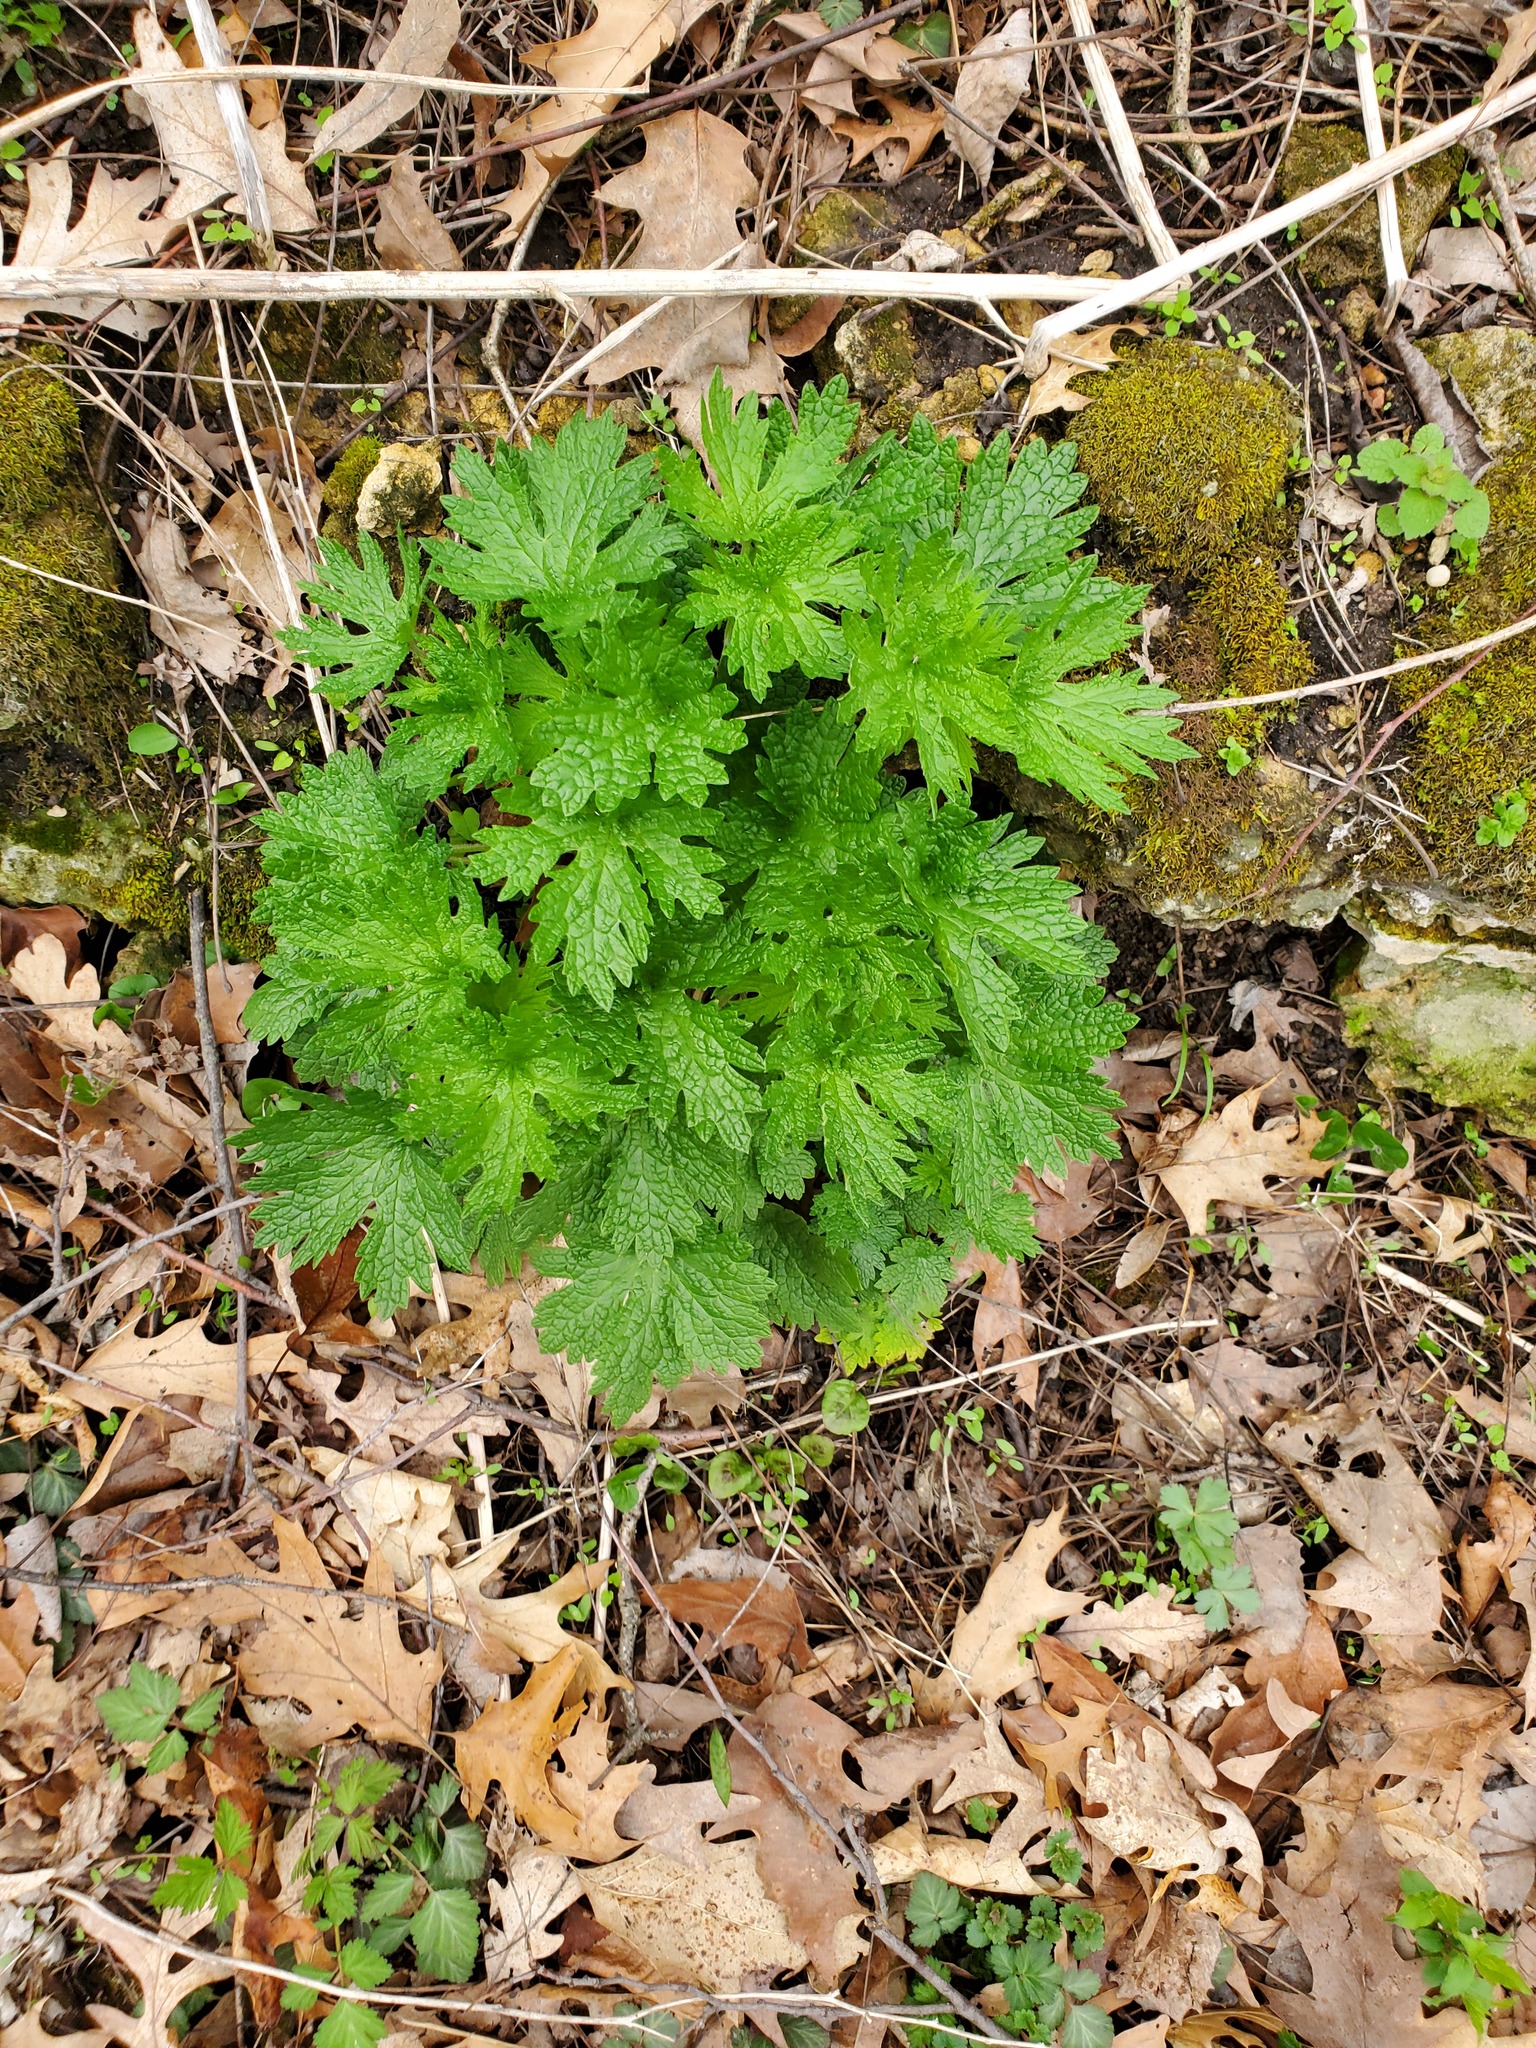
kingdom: Plantae
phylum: Tracheophyta
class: Magnoliopsida
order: Lamiales
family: Lamiaceae
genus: Leonurus
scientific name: Leonurus cardiaca
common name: Motherwort
